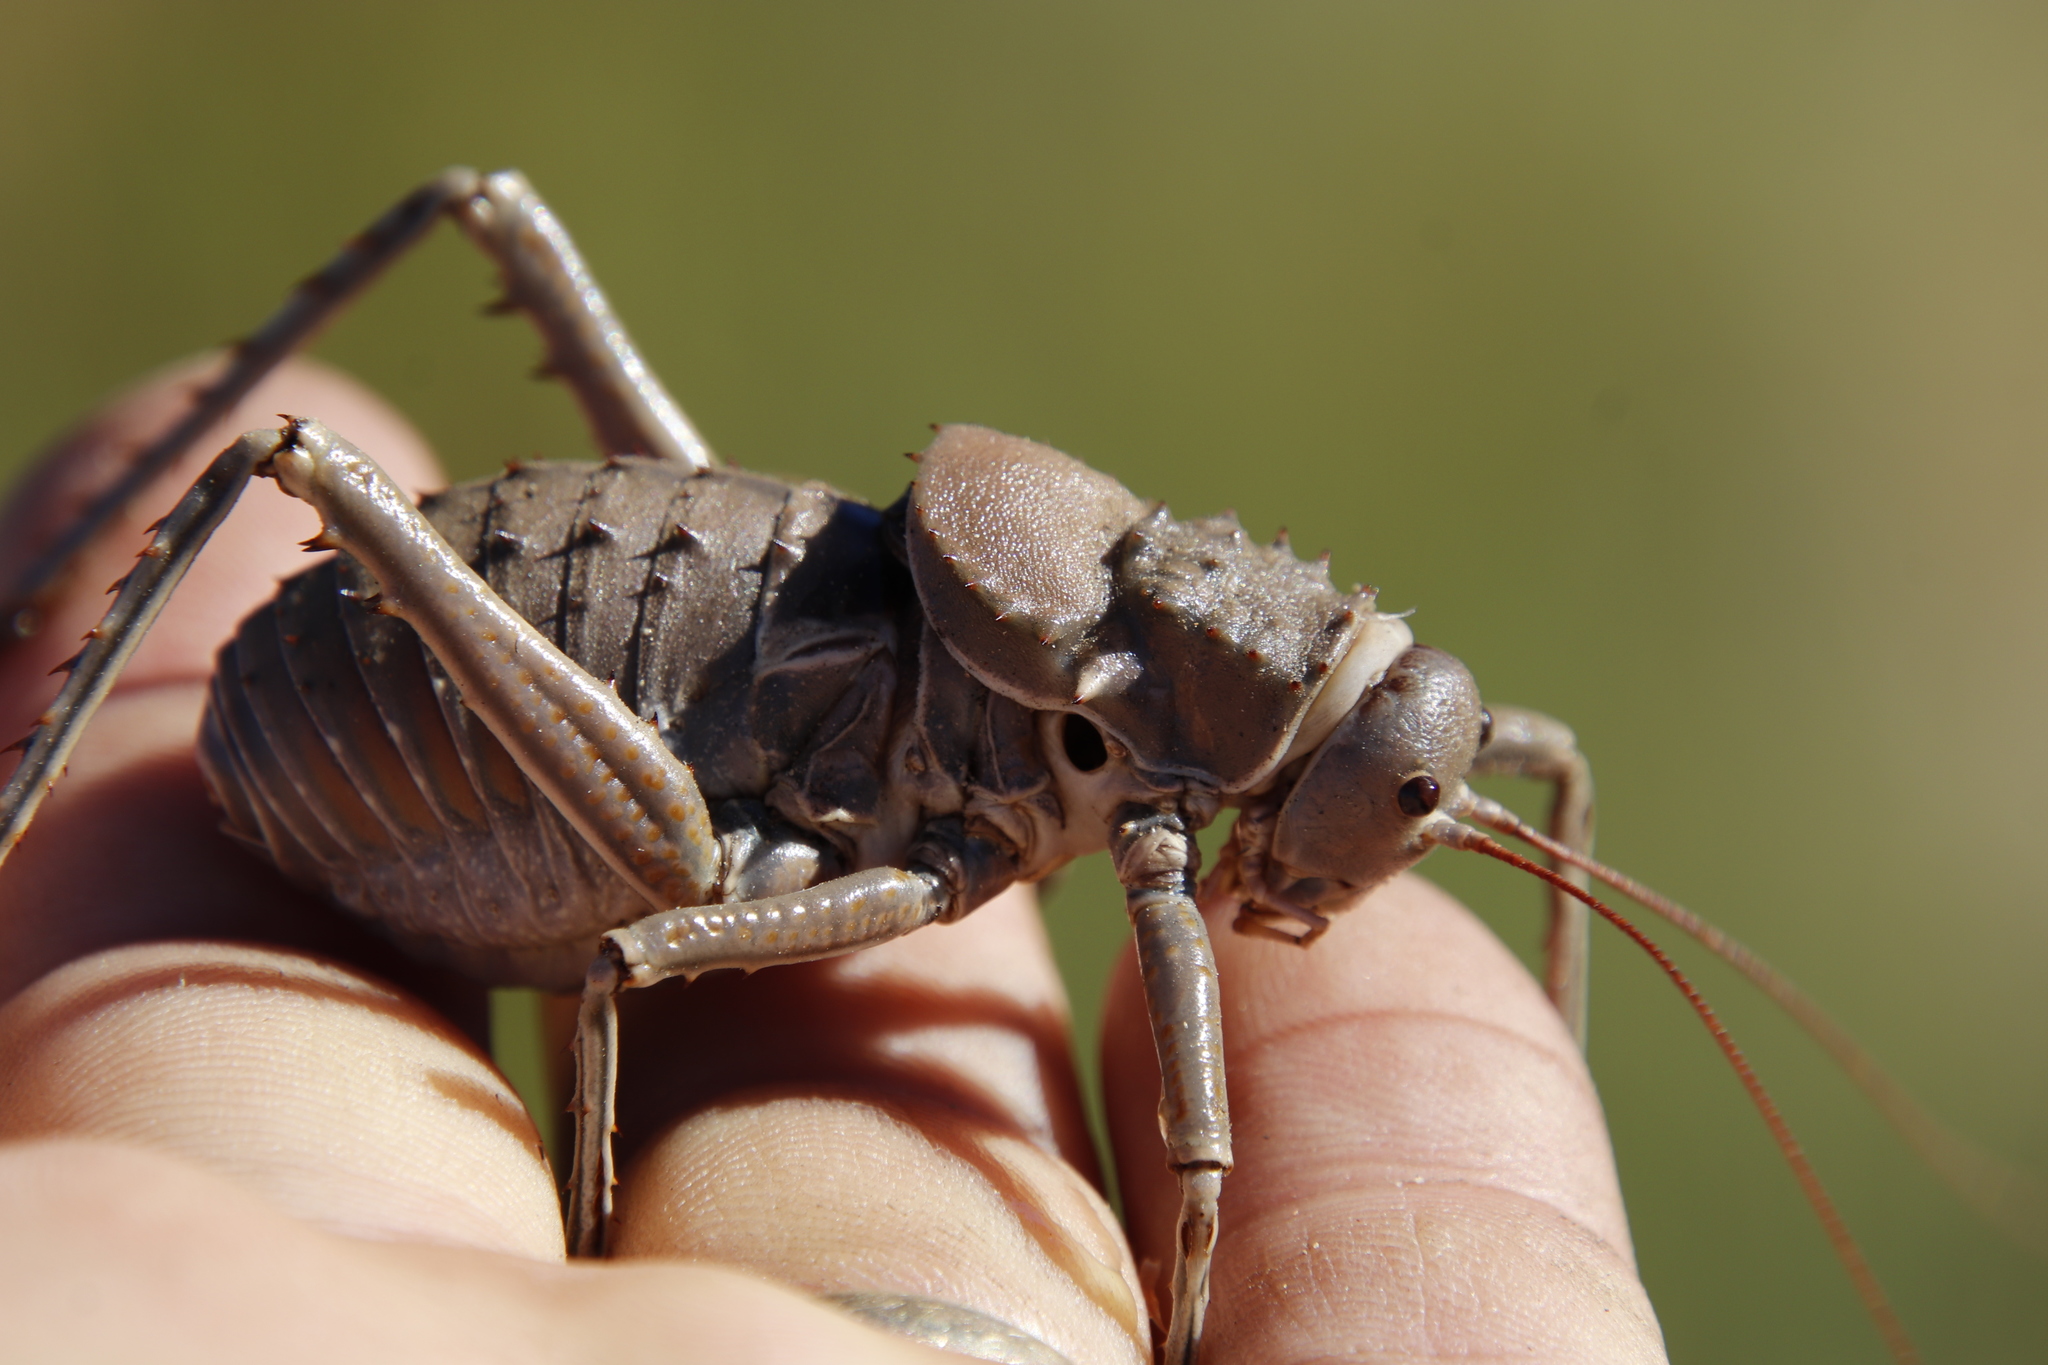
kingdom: Animalia
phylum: Arthropoda
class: Insecta
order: Orthoptera
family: Tettigoniidae
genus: Hetrodes
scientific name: Hetrodes pupus
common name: Koringkriek
